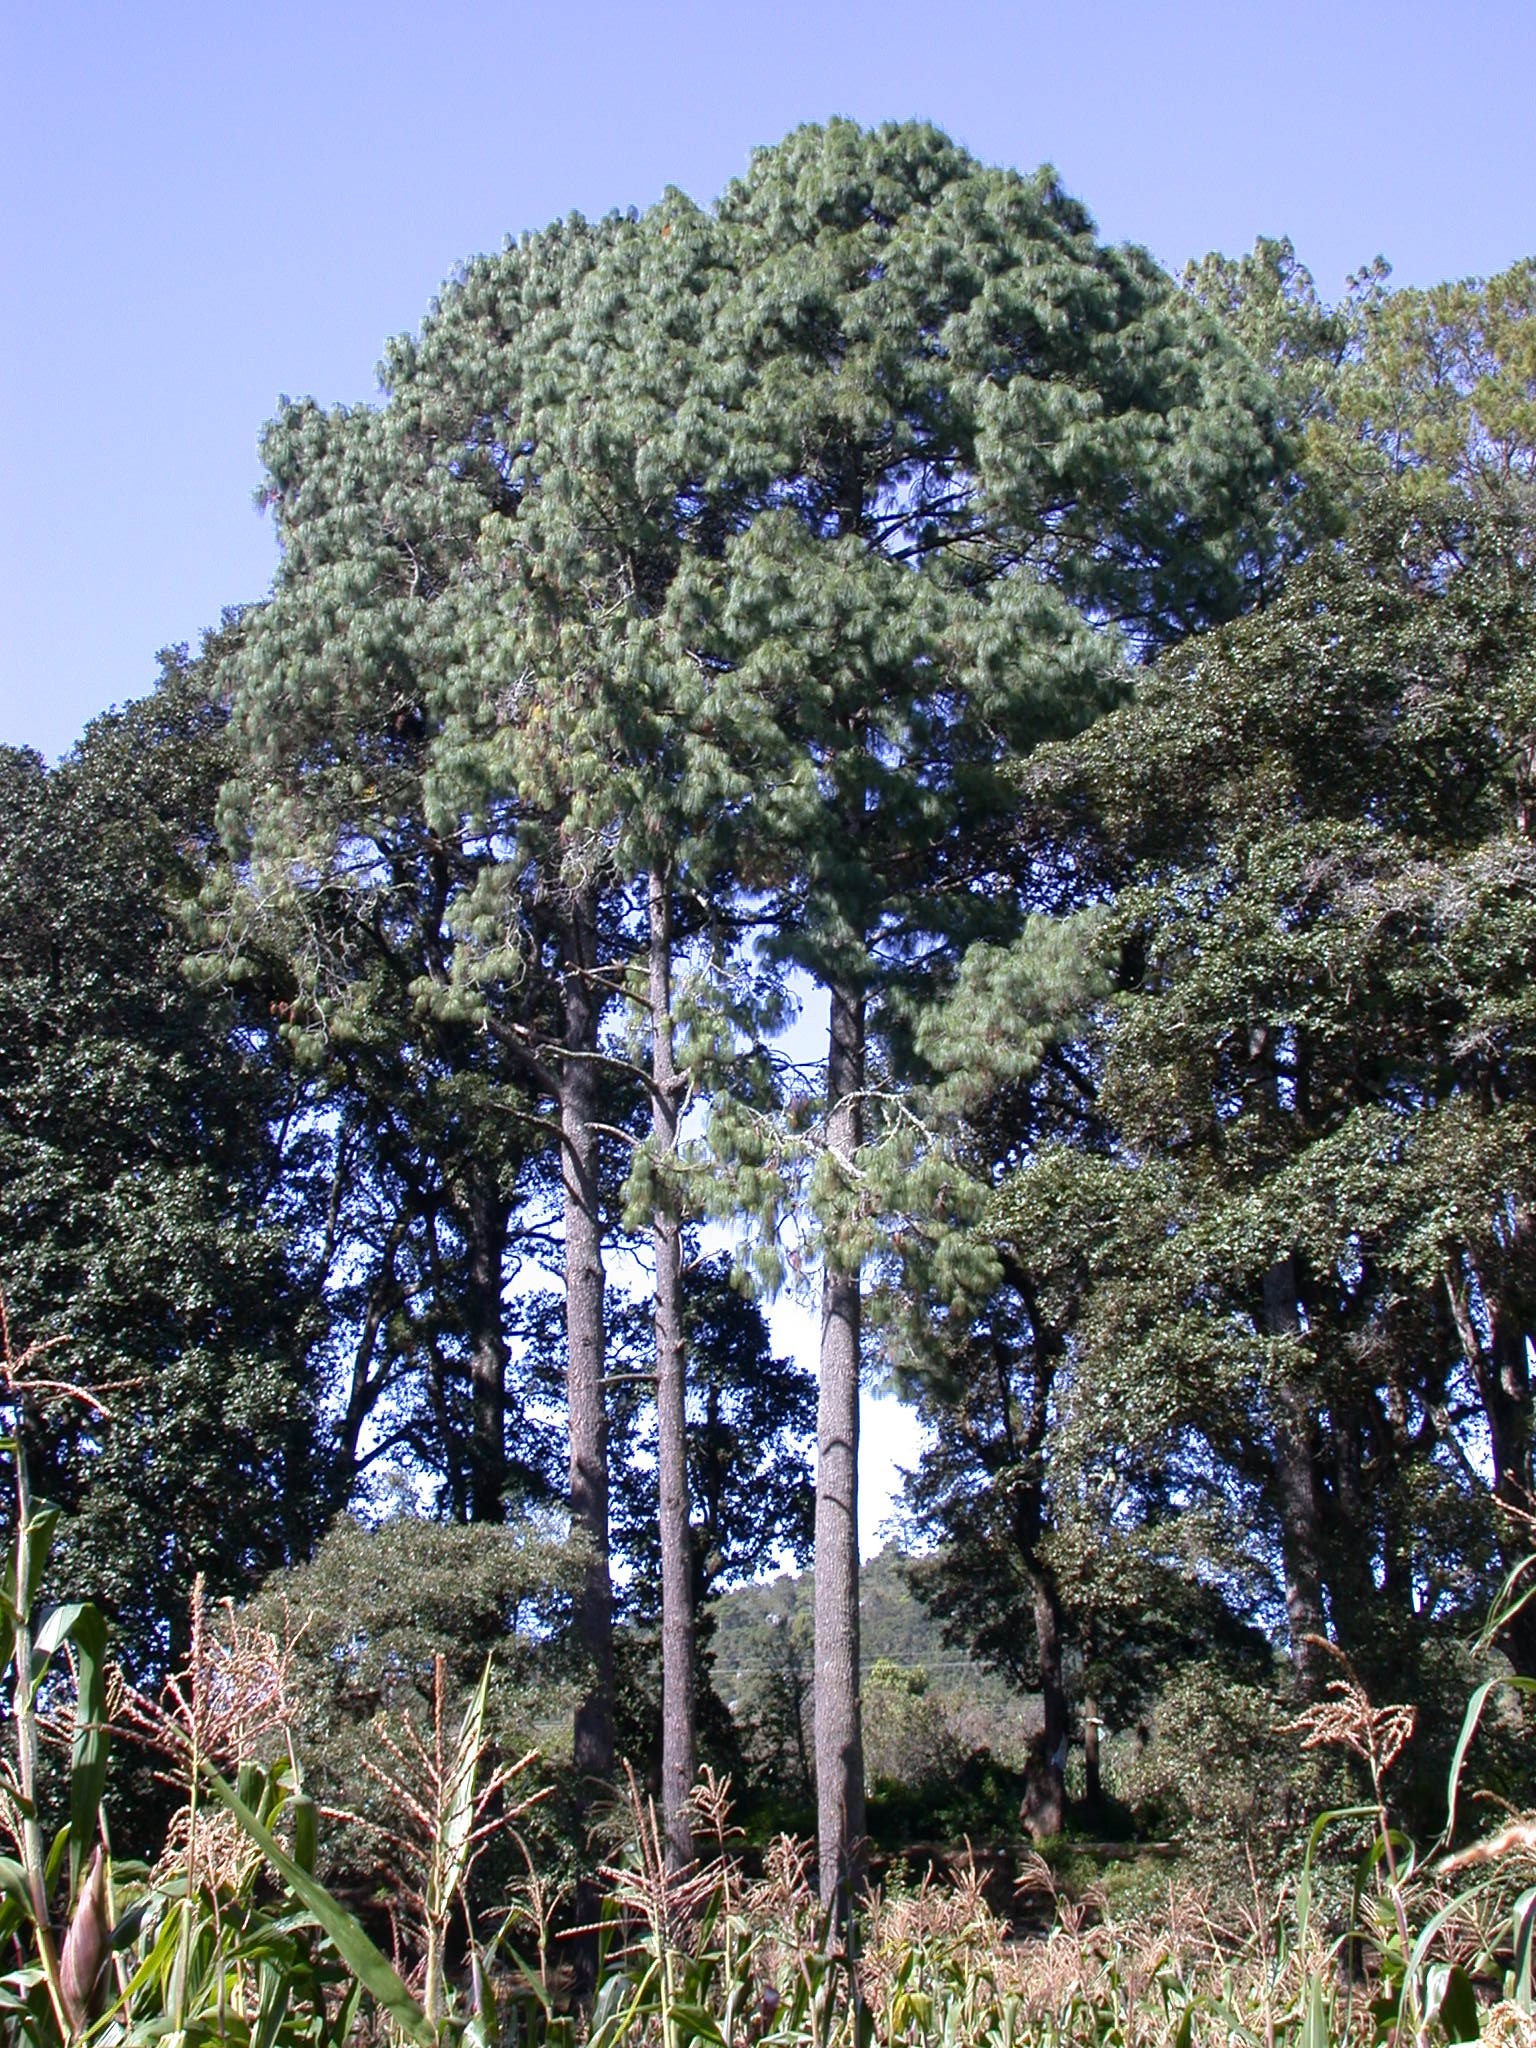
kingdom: Plantae
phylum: Tracheophyta
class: Pinopsida
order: Pinales
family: Pinaceae
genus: Pinus
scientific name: Pinus pseudostrobus
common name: False weymouth pine
